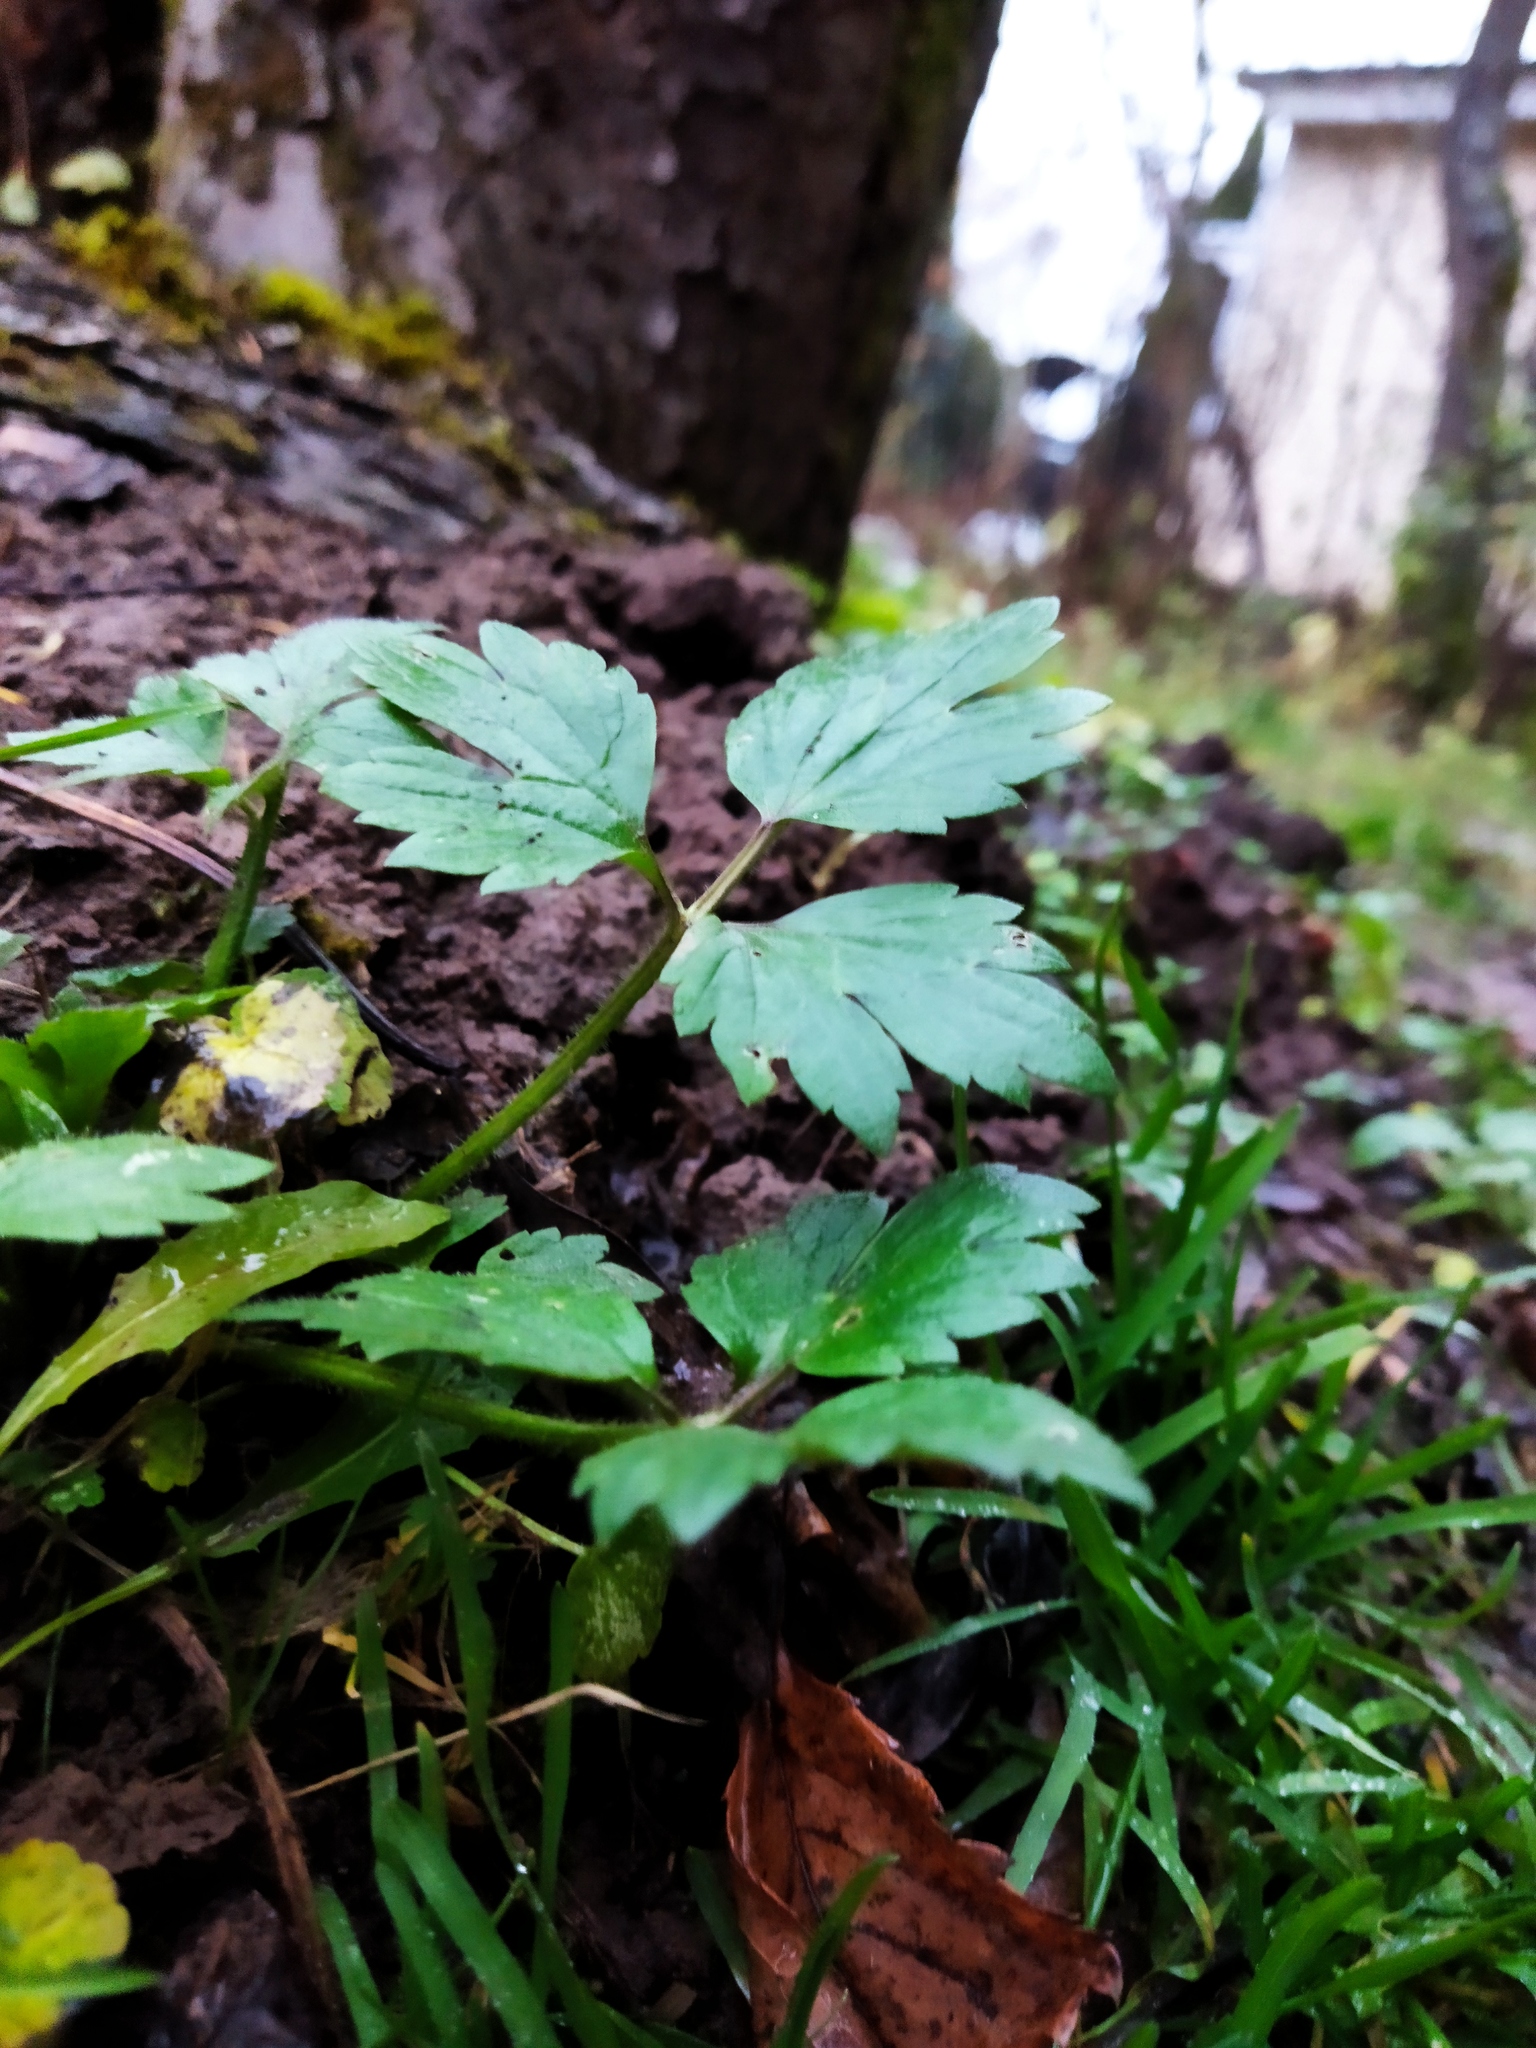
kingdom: Plantae
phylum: Tracheophyta
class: Magnoliopsida
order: Ranunculales
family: Ranunculaceae
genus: Ranunculus
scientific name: Ranunculus repens
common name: Creeping buttercup
